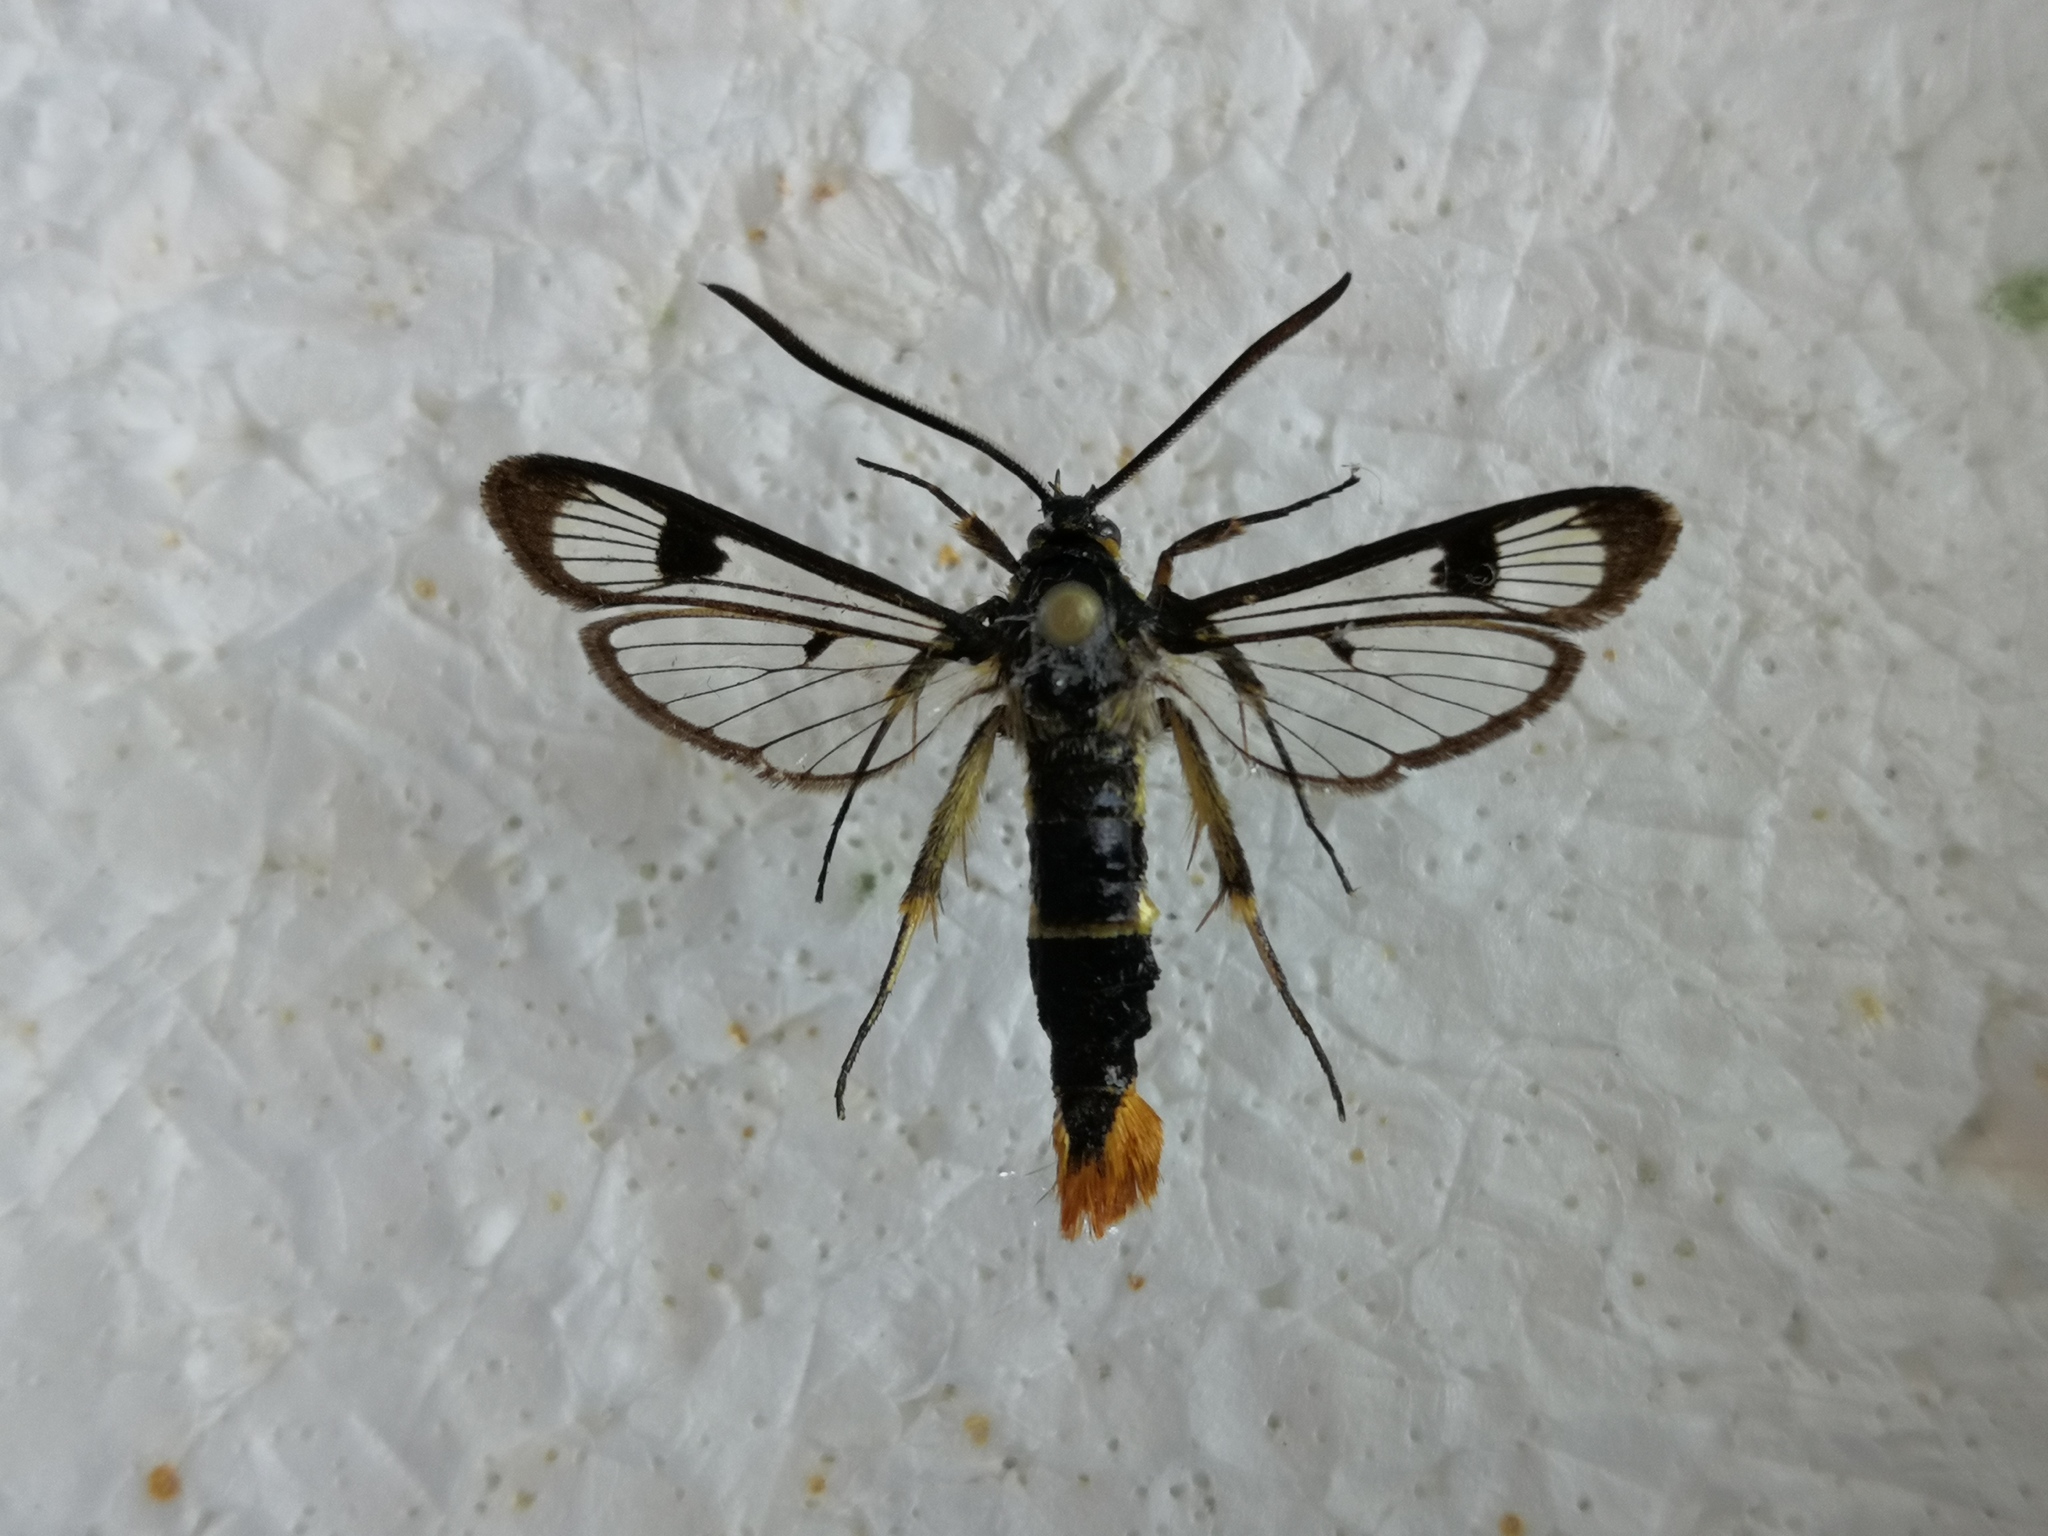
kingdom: Animalia
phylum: Arthropoda
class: Insecta
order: Lepidoptera
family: Sesiidae
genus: Synanthedon
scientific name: Synanthedon scoliaeformis
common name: Welsh clearwing
